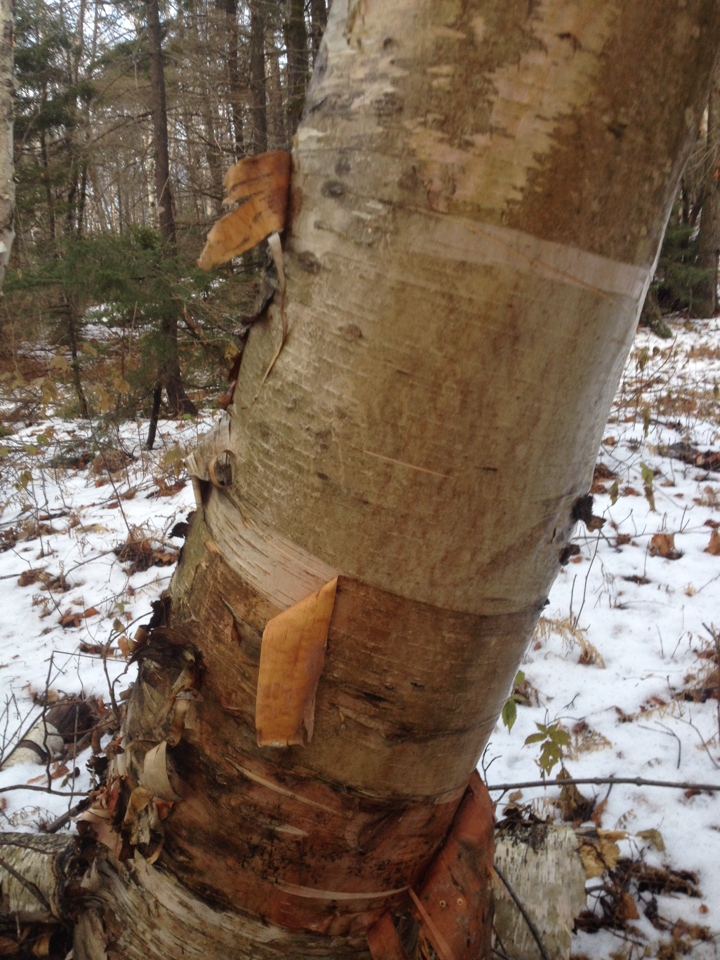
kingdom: Plantae
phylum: Tracheophyta
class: Magnoliopsida
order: Fagales
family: Betulaceae
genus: Betula
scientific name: Betula cordifolia
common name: Mountain white birch
